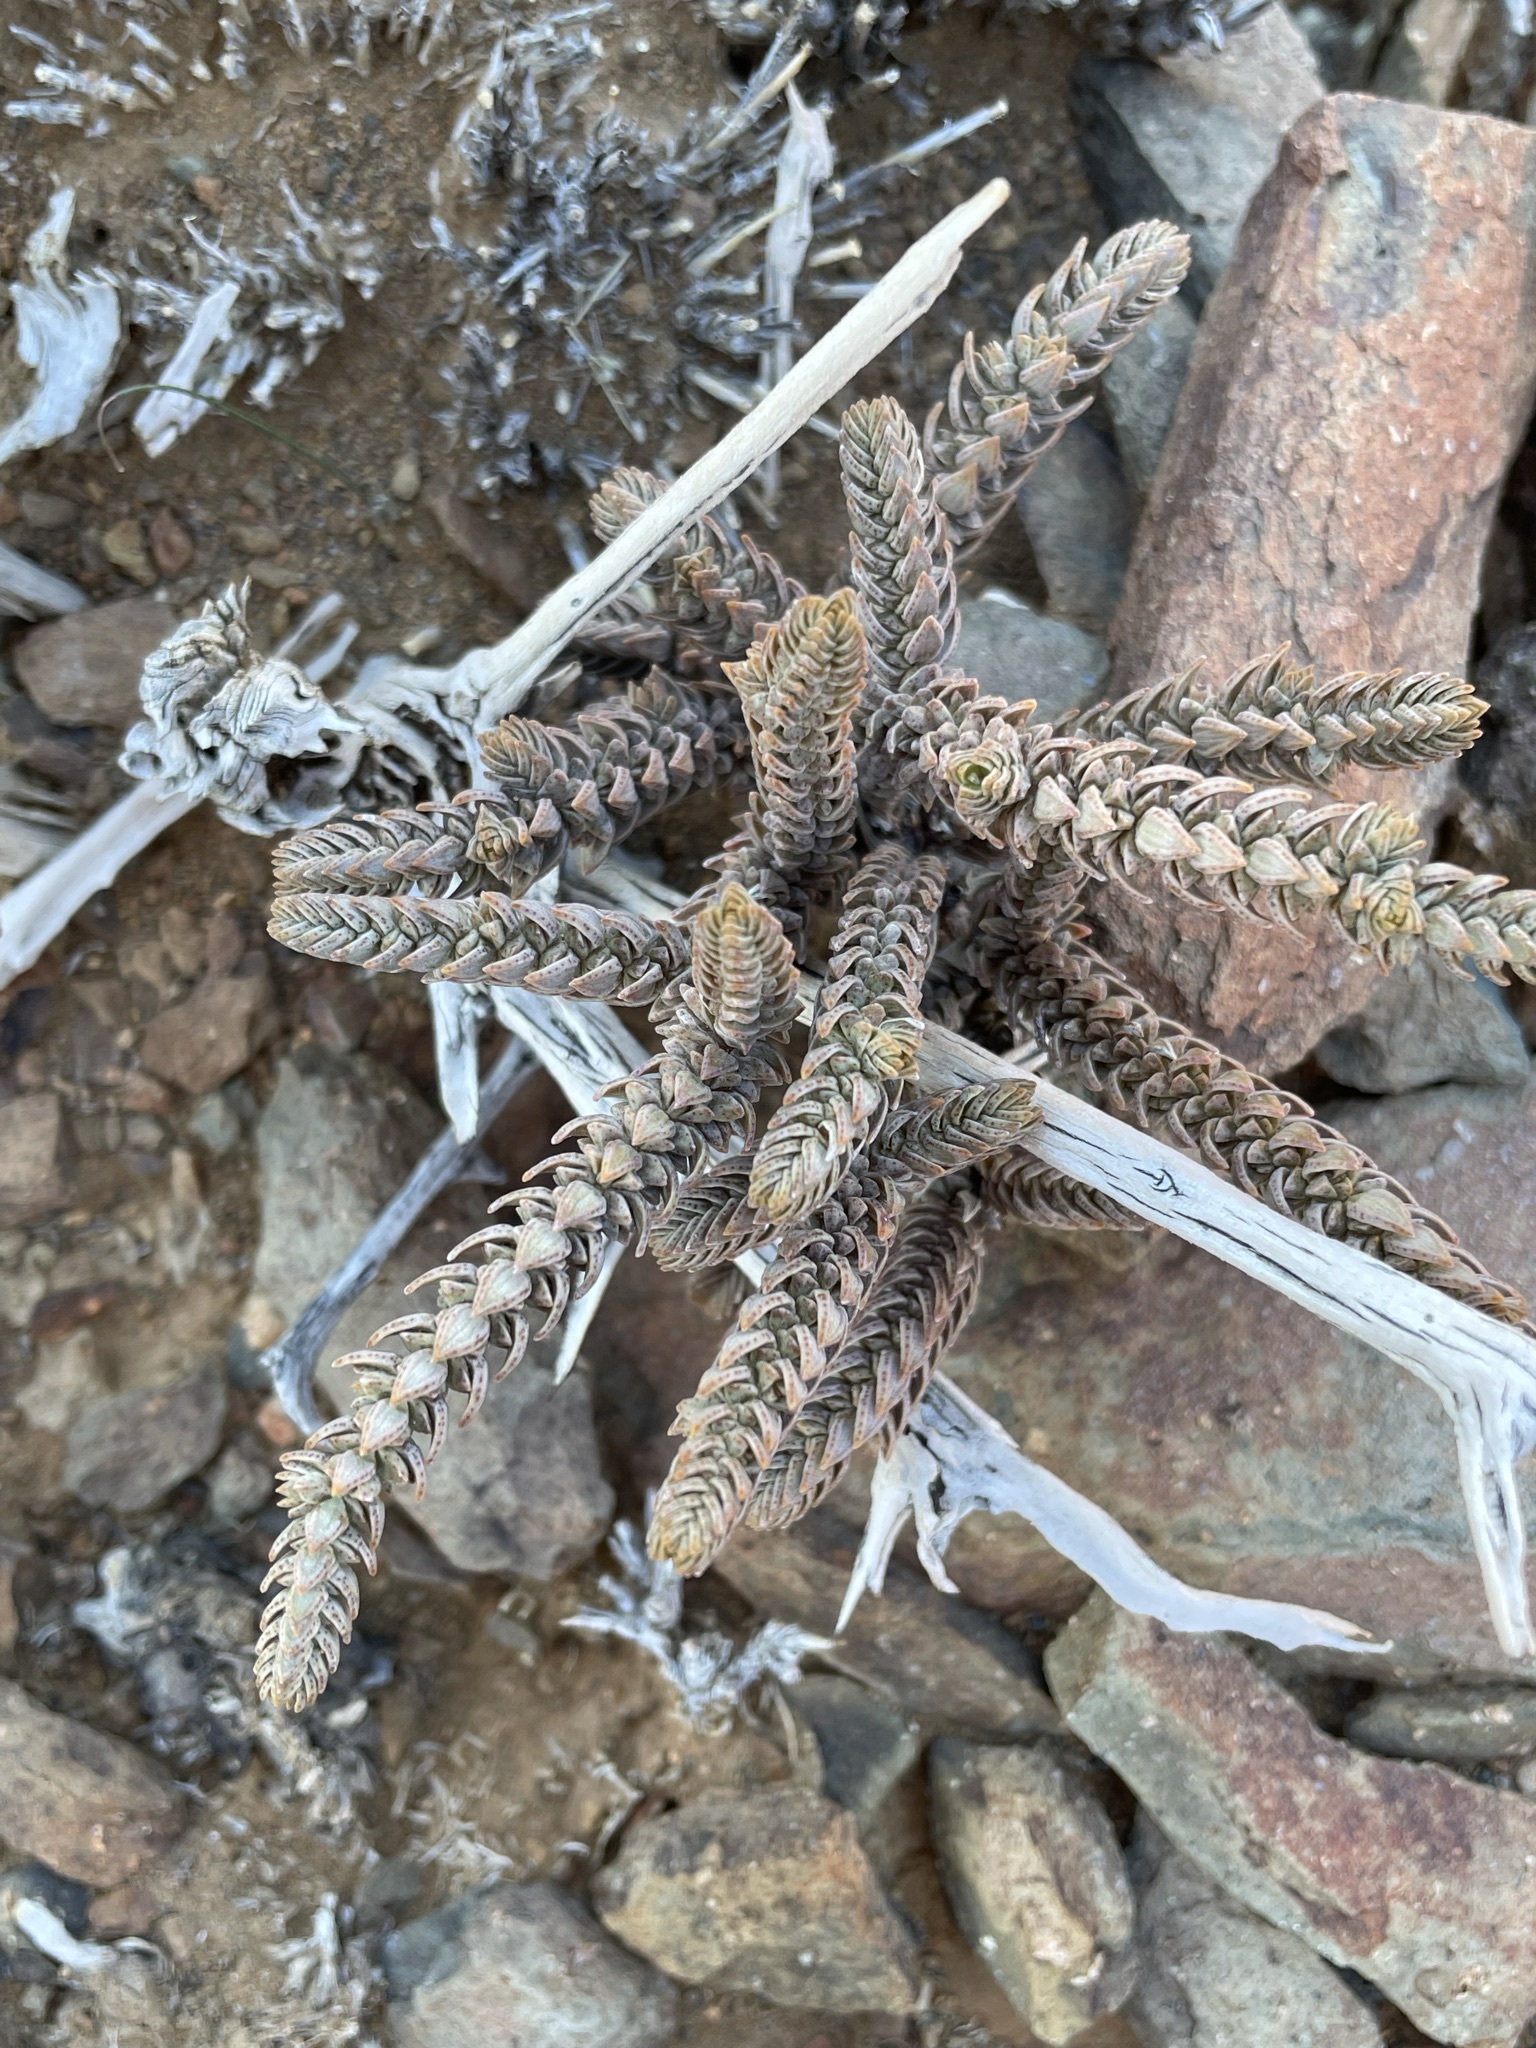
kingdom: Plantae
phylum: Tracheophyta
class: Magnoliopsida
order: Saxifragales
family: Crassulaceae
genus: Crassula
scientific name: Crassula muscosa
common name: Toy-cypress
